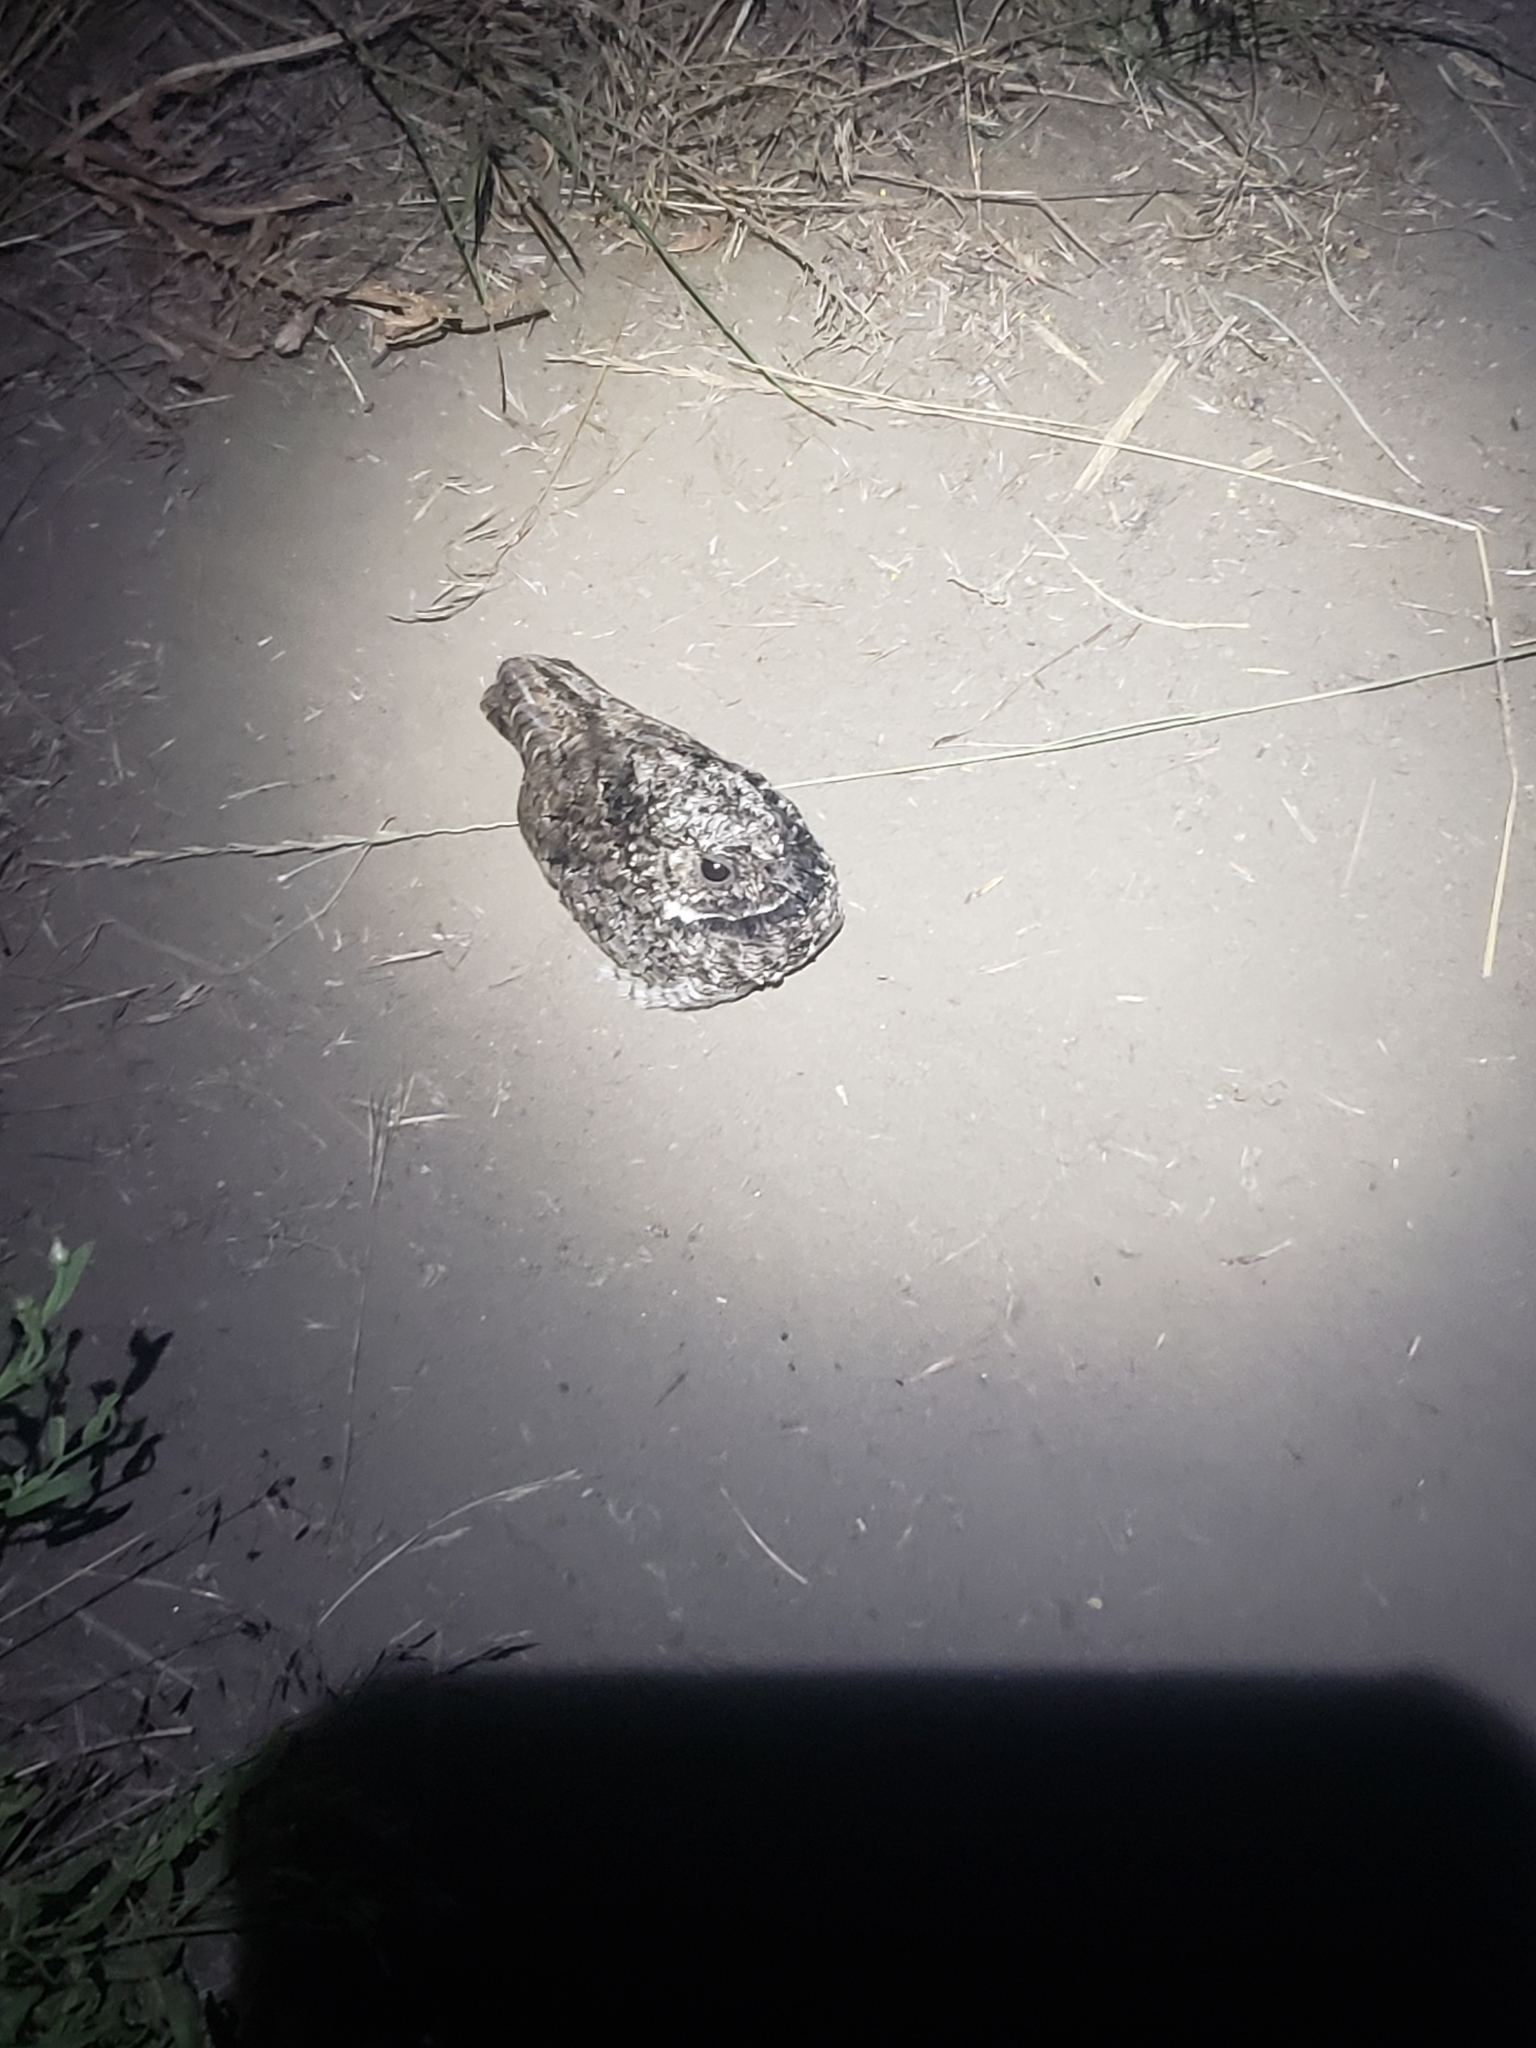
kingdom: Animalia
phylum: Chordata
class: Aves
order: Caprimulgiformes
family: Caprimulgidae
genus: Phalaenoptilus
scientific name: Phalaenoptilus nuttallii
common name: Common poorwill
